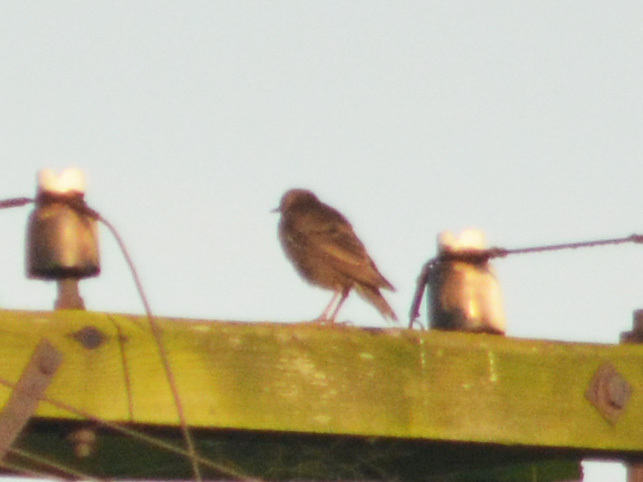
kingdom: Animalia
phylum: Chordata
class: Aves
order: Passeriformes
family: Sturnidae
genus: Sturnus
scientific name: Sturnus vulgaris
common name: Common starling
